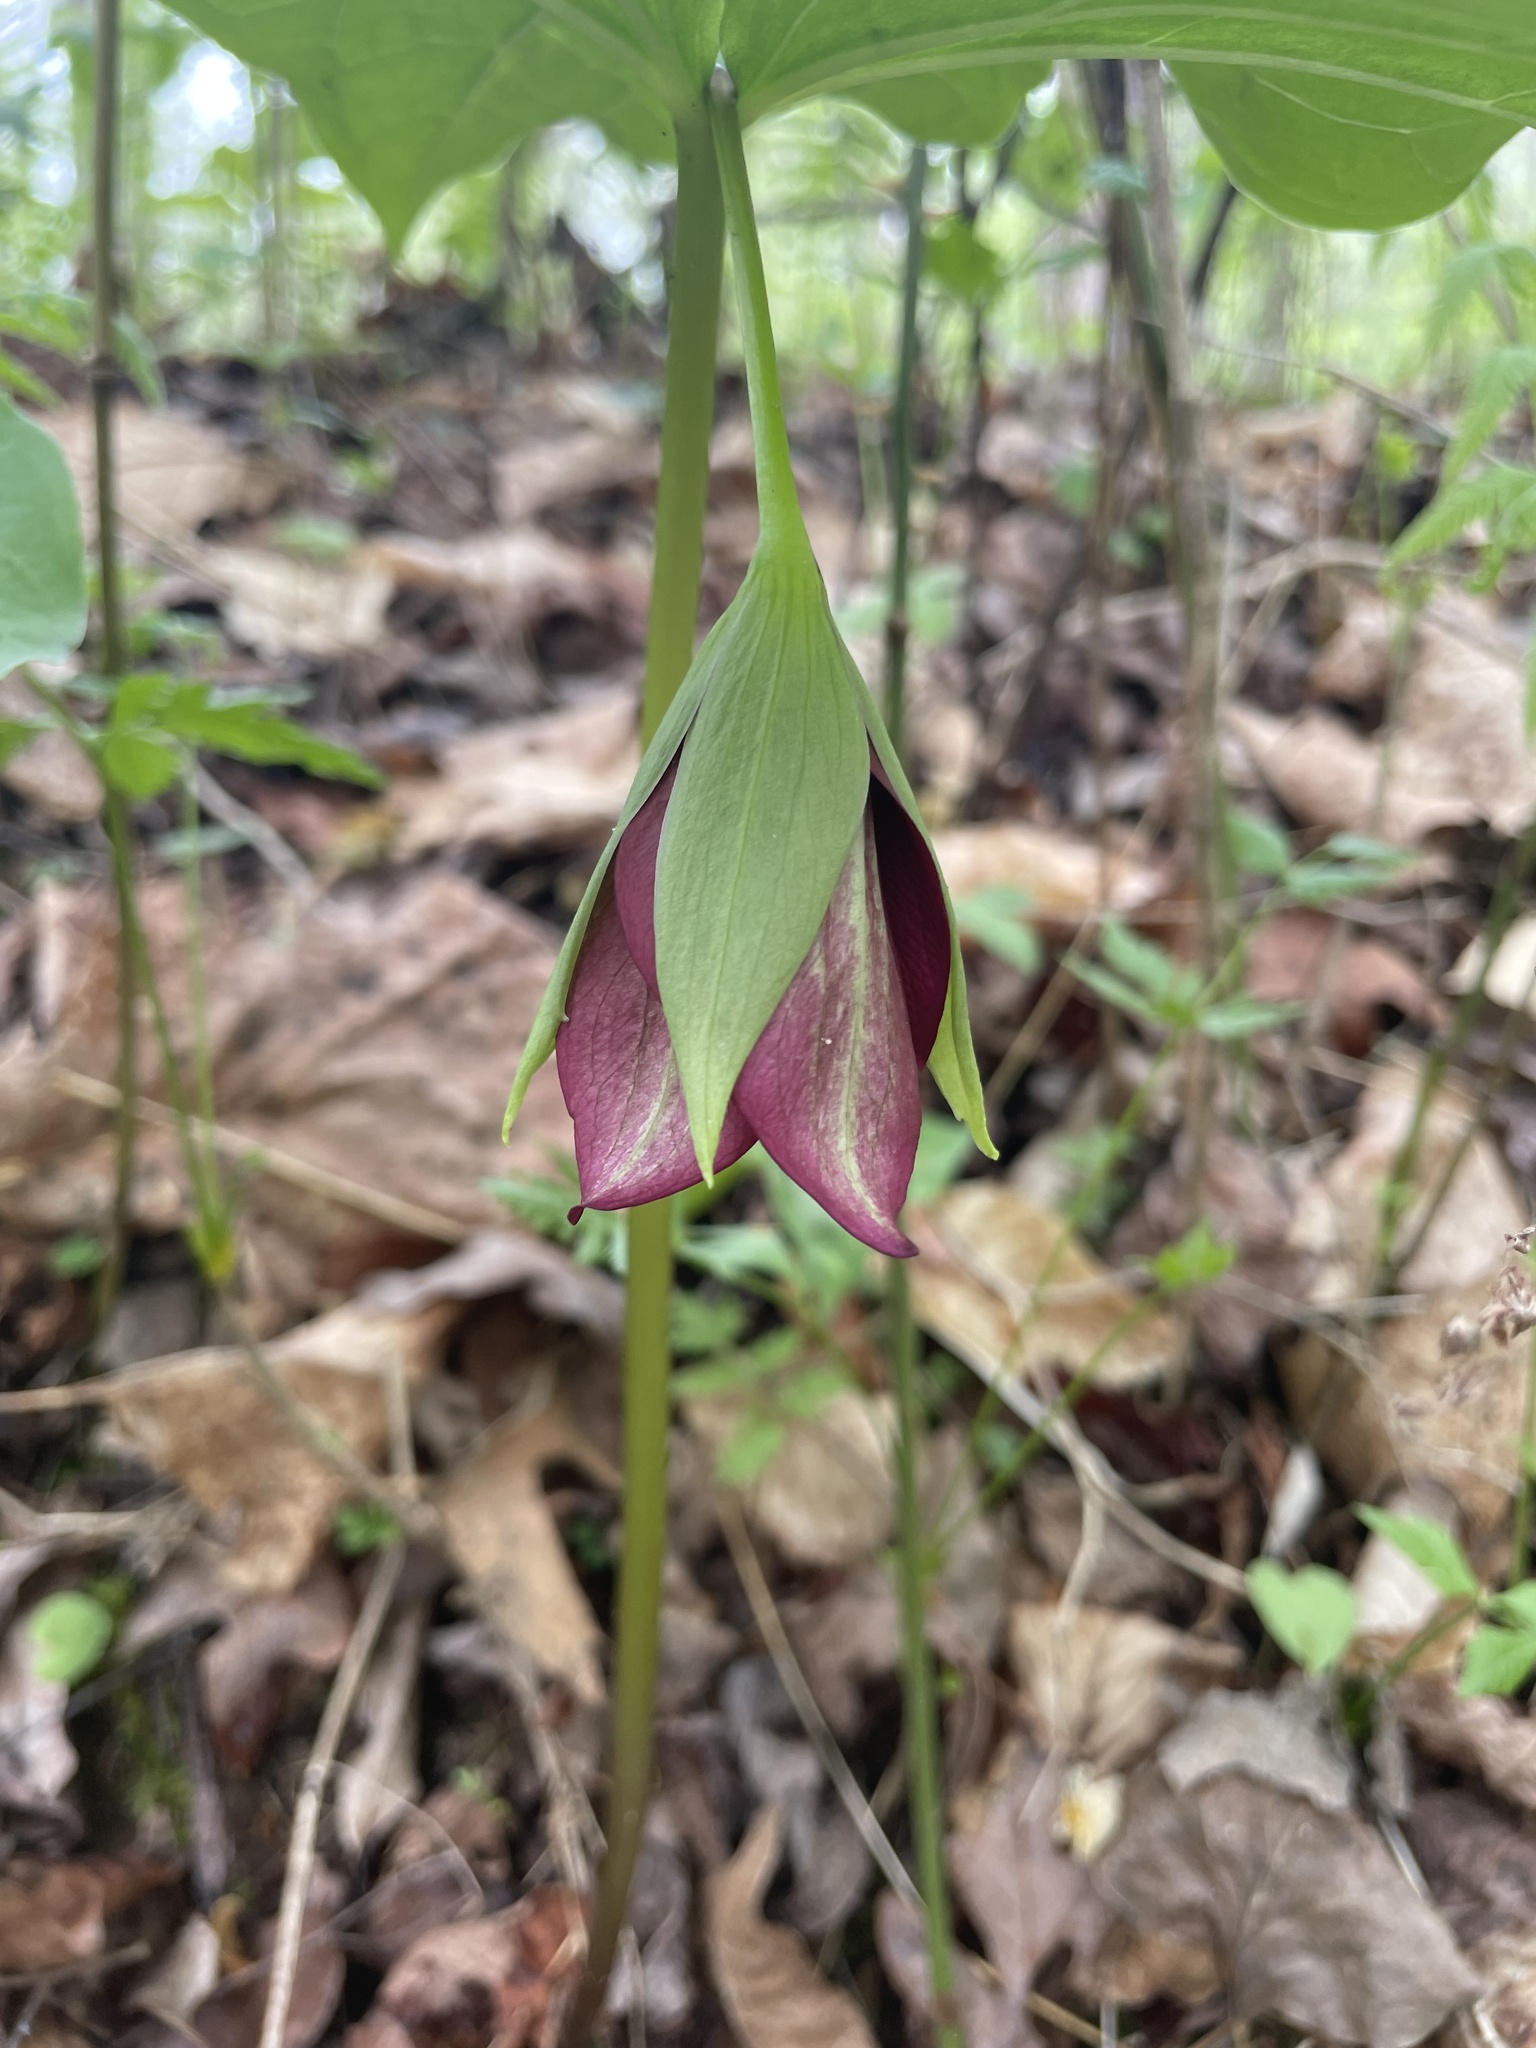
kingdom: Plantae
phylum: Tracheophyta
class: Liliopsida
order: Liliales
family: Melanthiaceae
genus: Trillium
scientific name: Trillium vaseyi
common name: Sweet trillium
